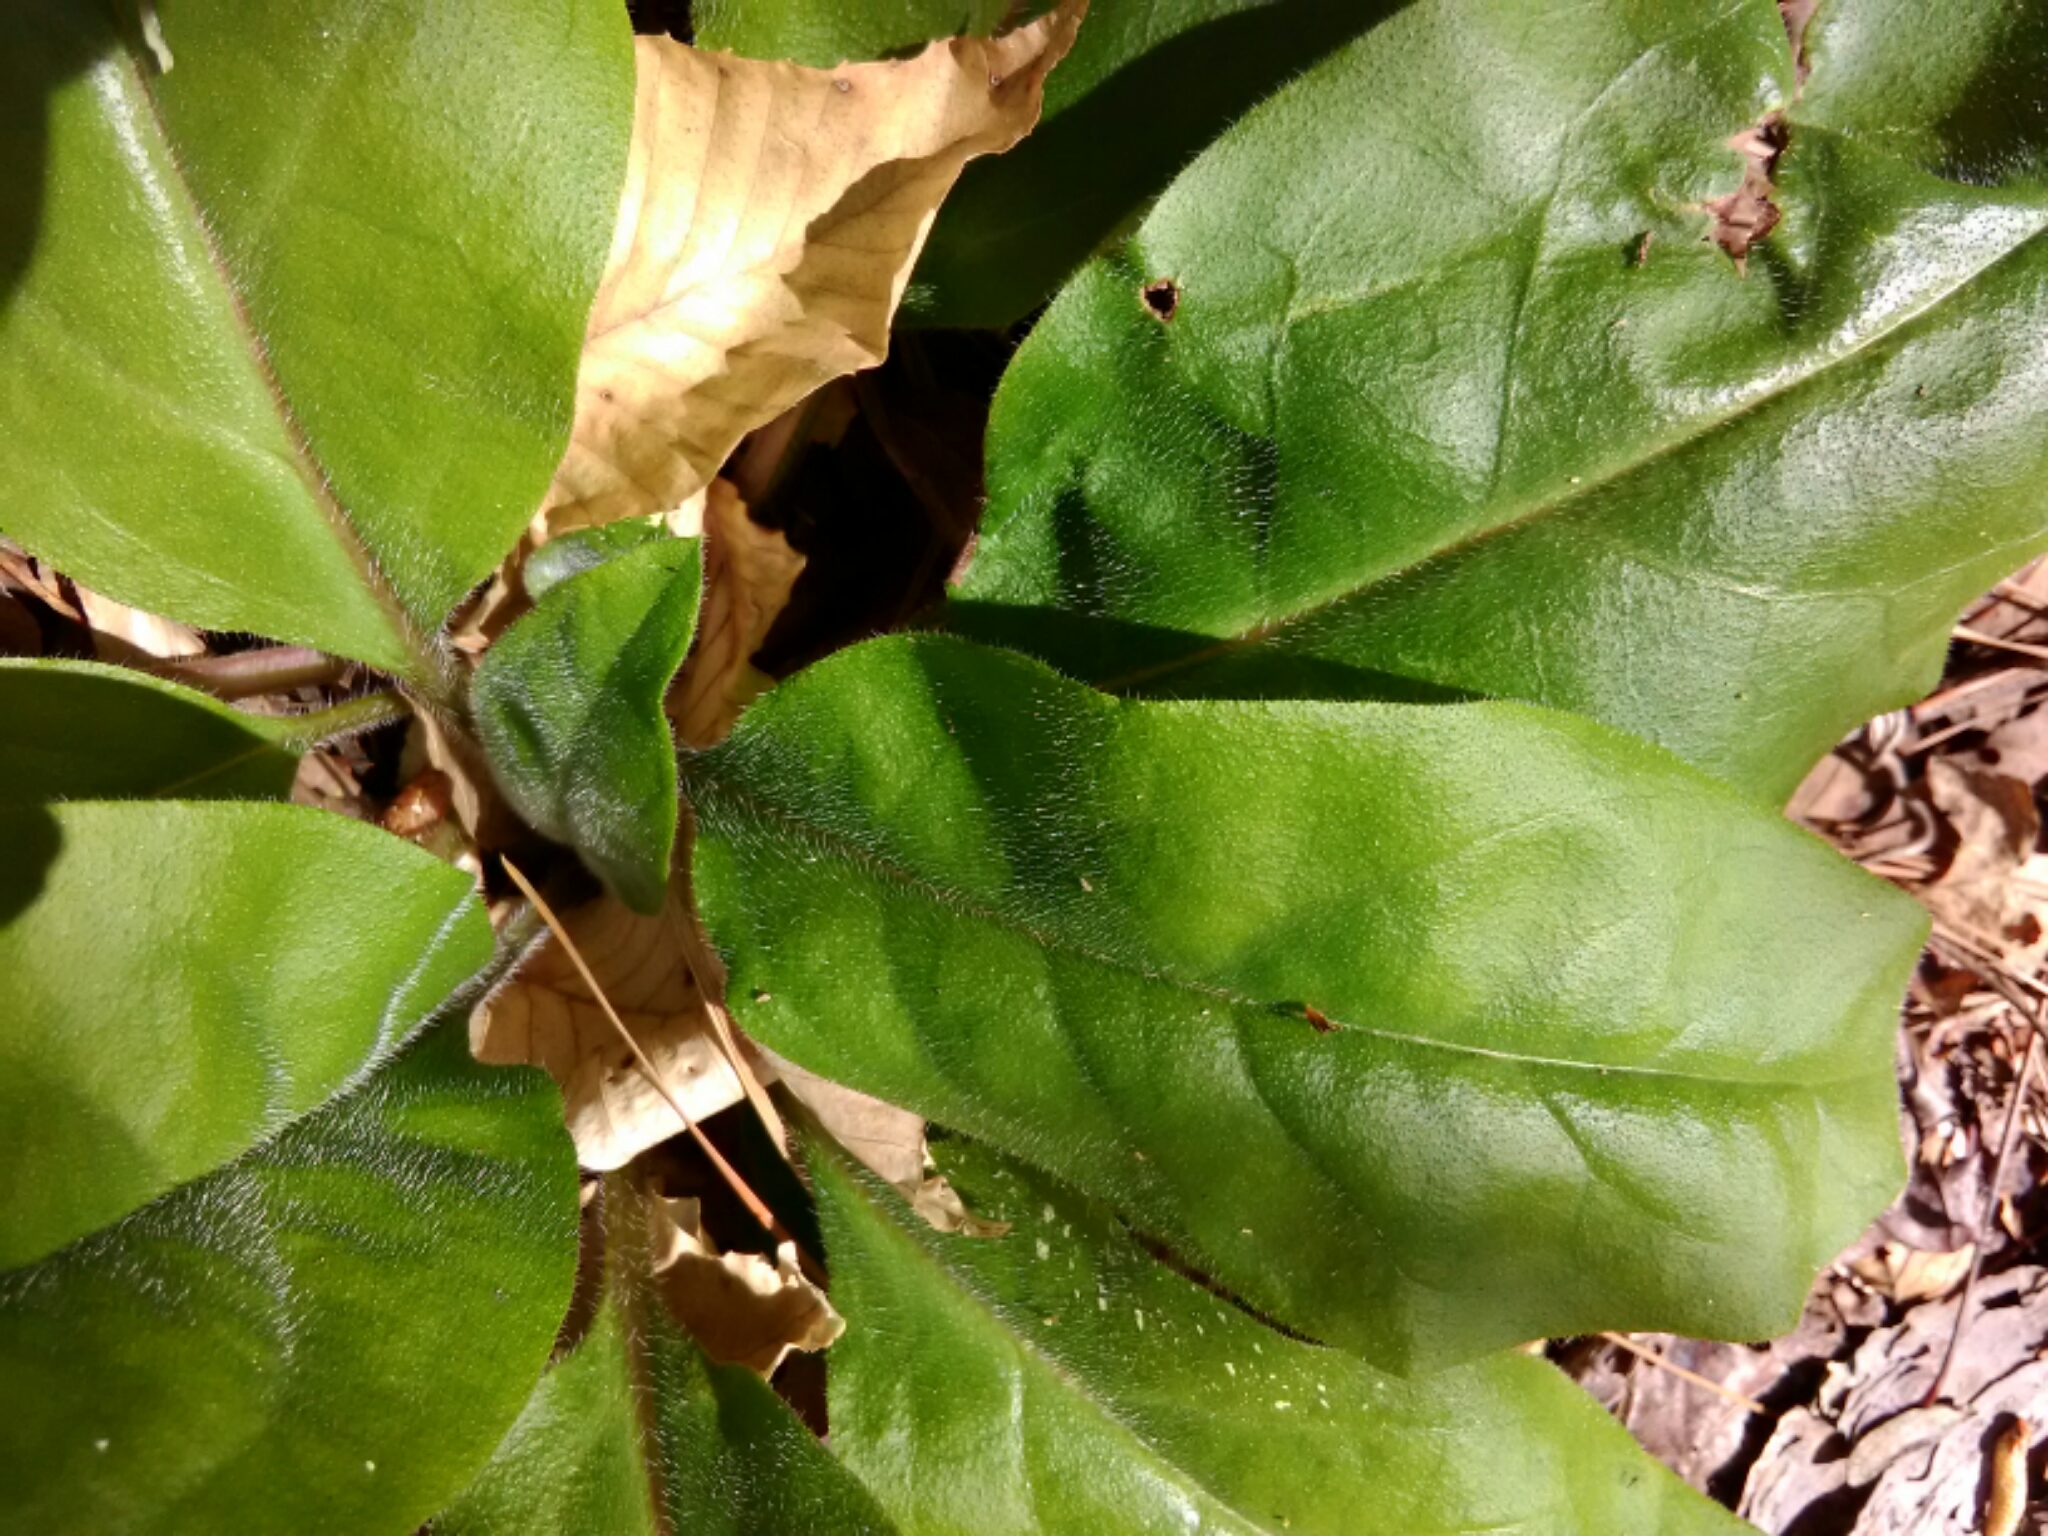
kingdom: Plantae
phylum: Tracheophyta
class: Magnoliopsida
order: Boraginales
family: Boraginaceae
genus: Andersonglossum
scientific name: Andersonglossum virginianum
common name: Wild comfrey
